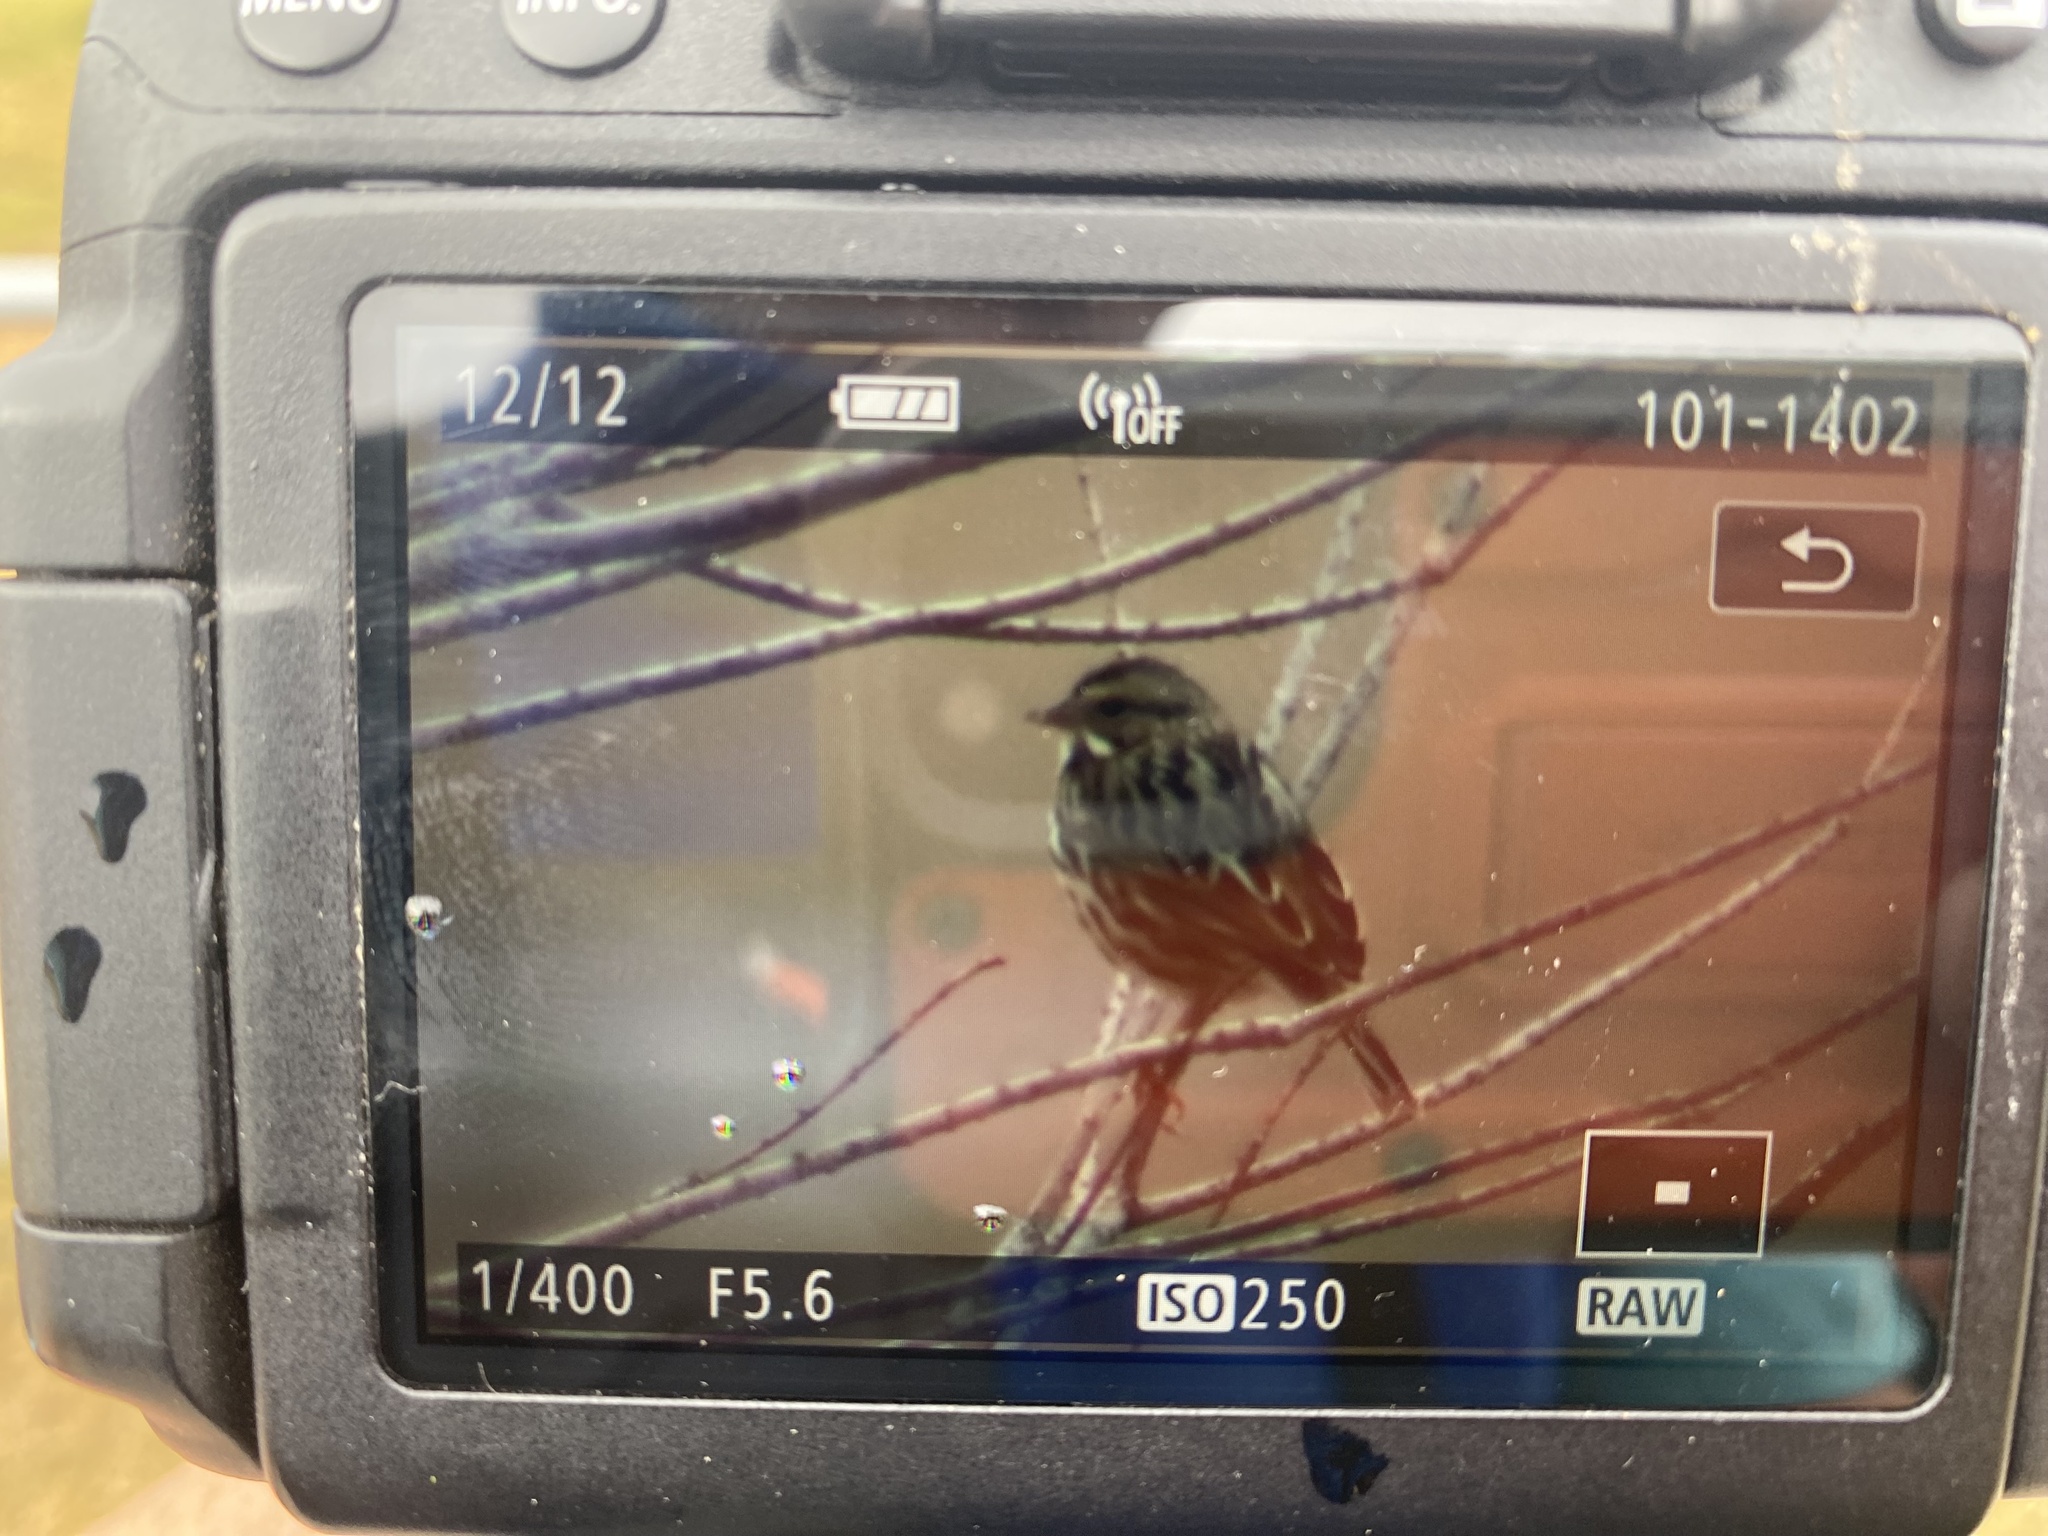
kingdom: Animalia
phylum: Chordata
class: Aves
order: Passeriformes
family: Passerellidae
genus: Passerculus
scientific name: Passerculus sandwichensis
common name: Savannah sparrow
